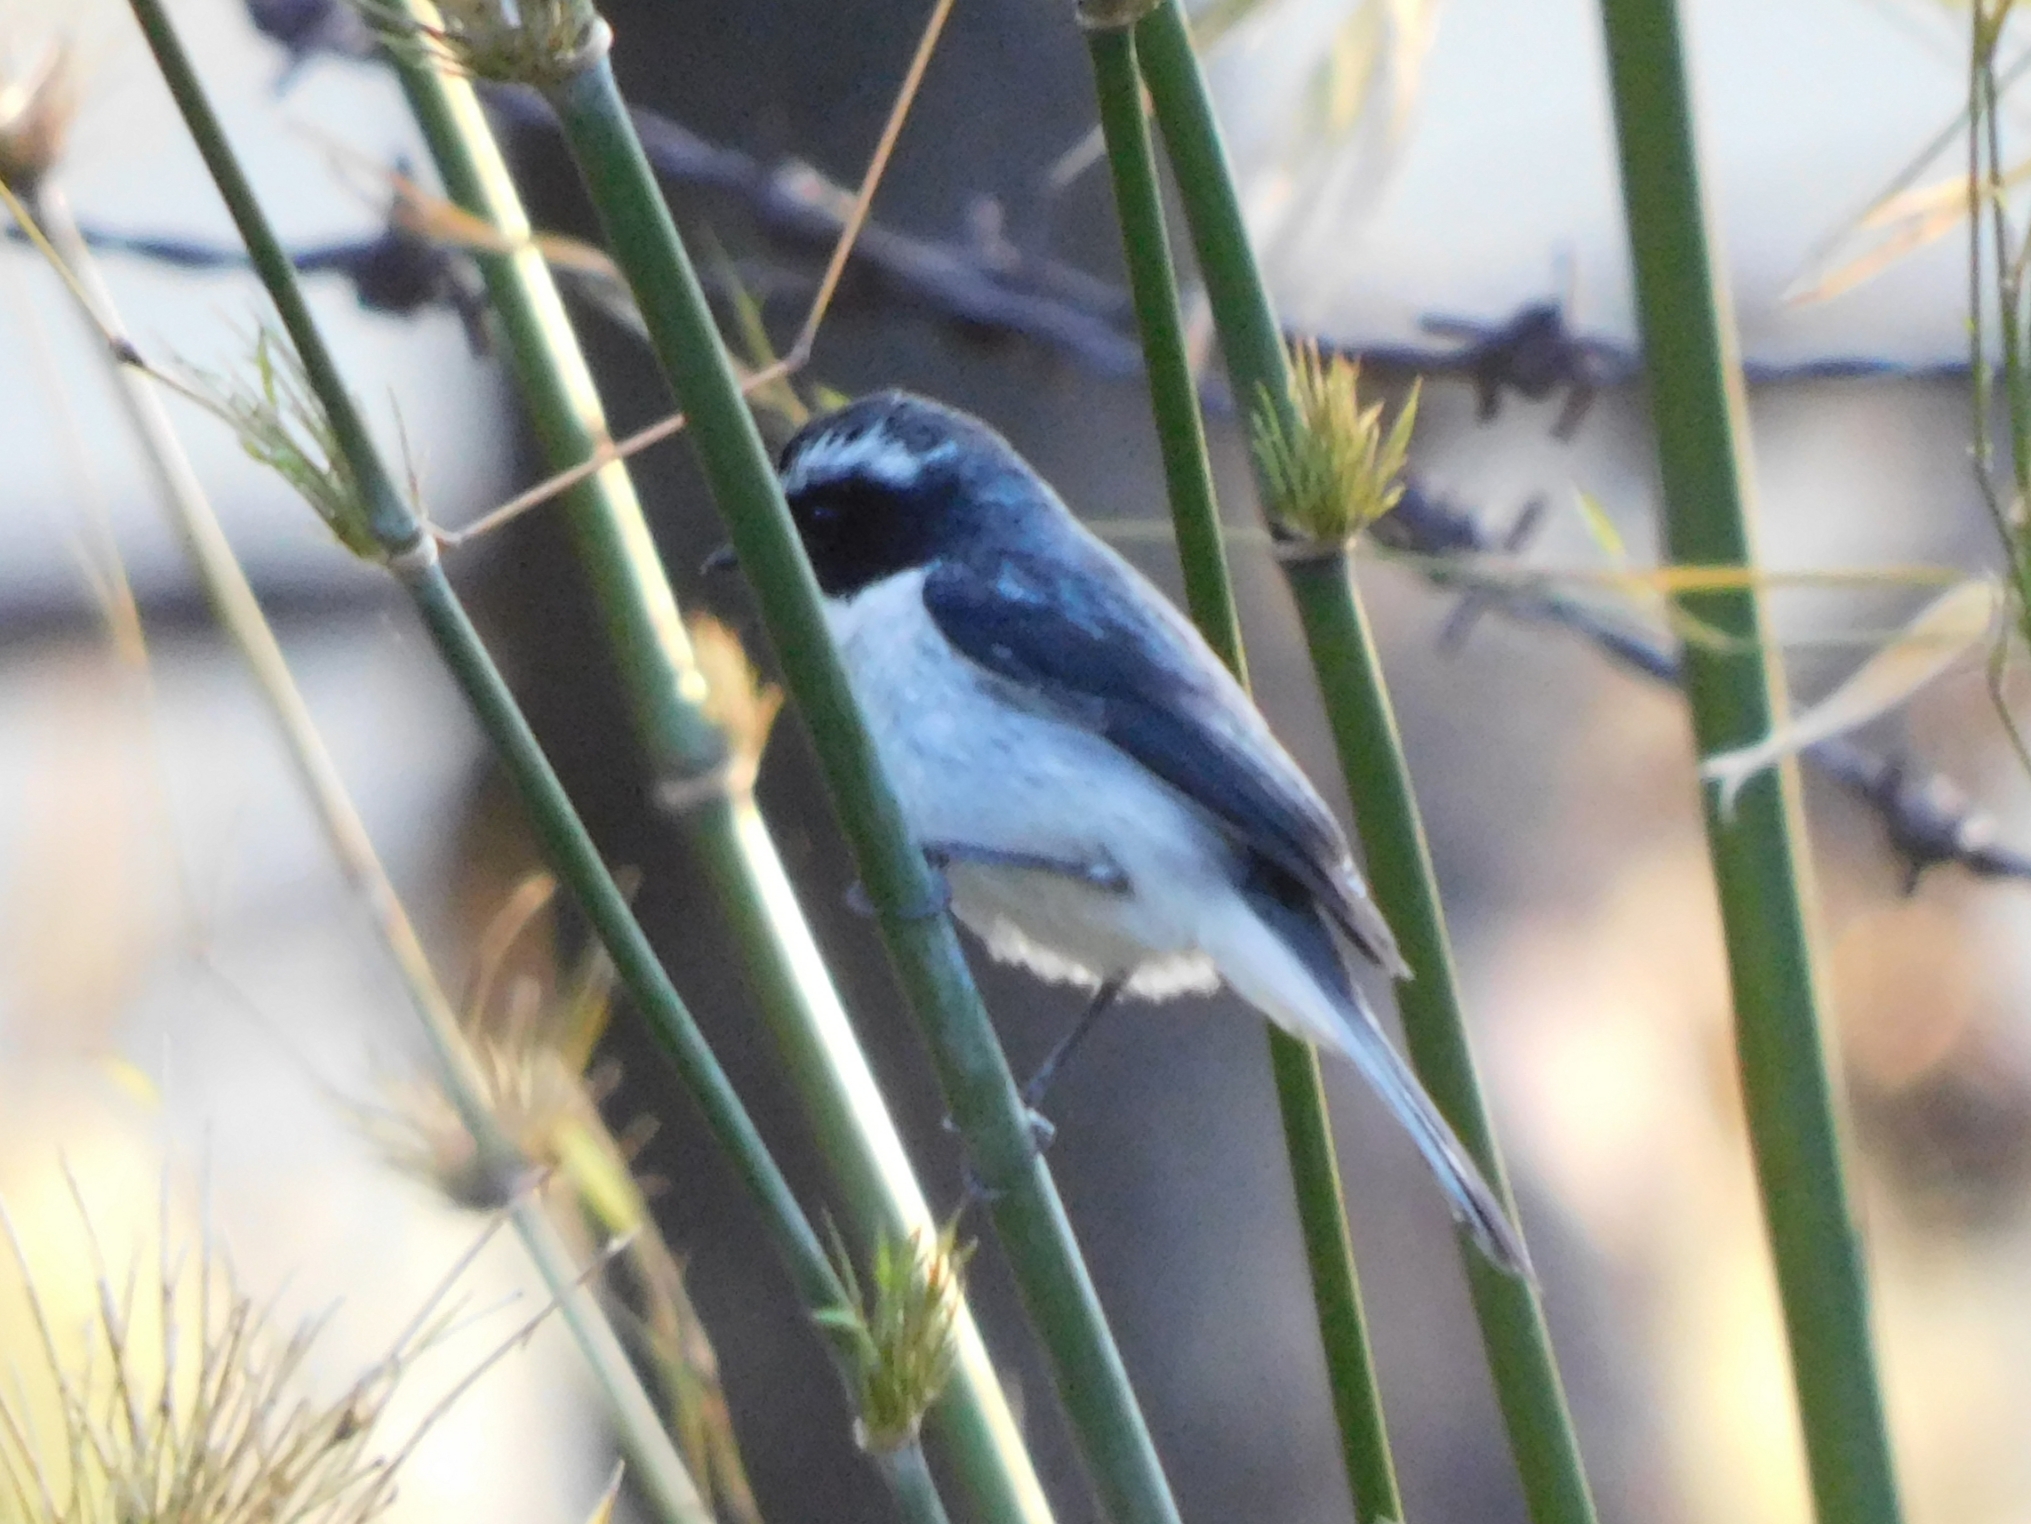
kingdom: Animalia
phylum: Chordata
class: Aves
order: Passeriformes
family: Muscicapidae
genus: Saxicola
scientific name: Saxicola ferreus
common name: Grey bush chat
